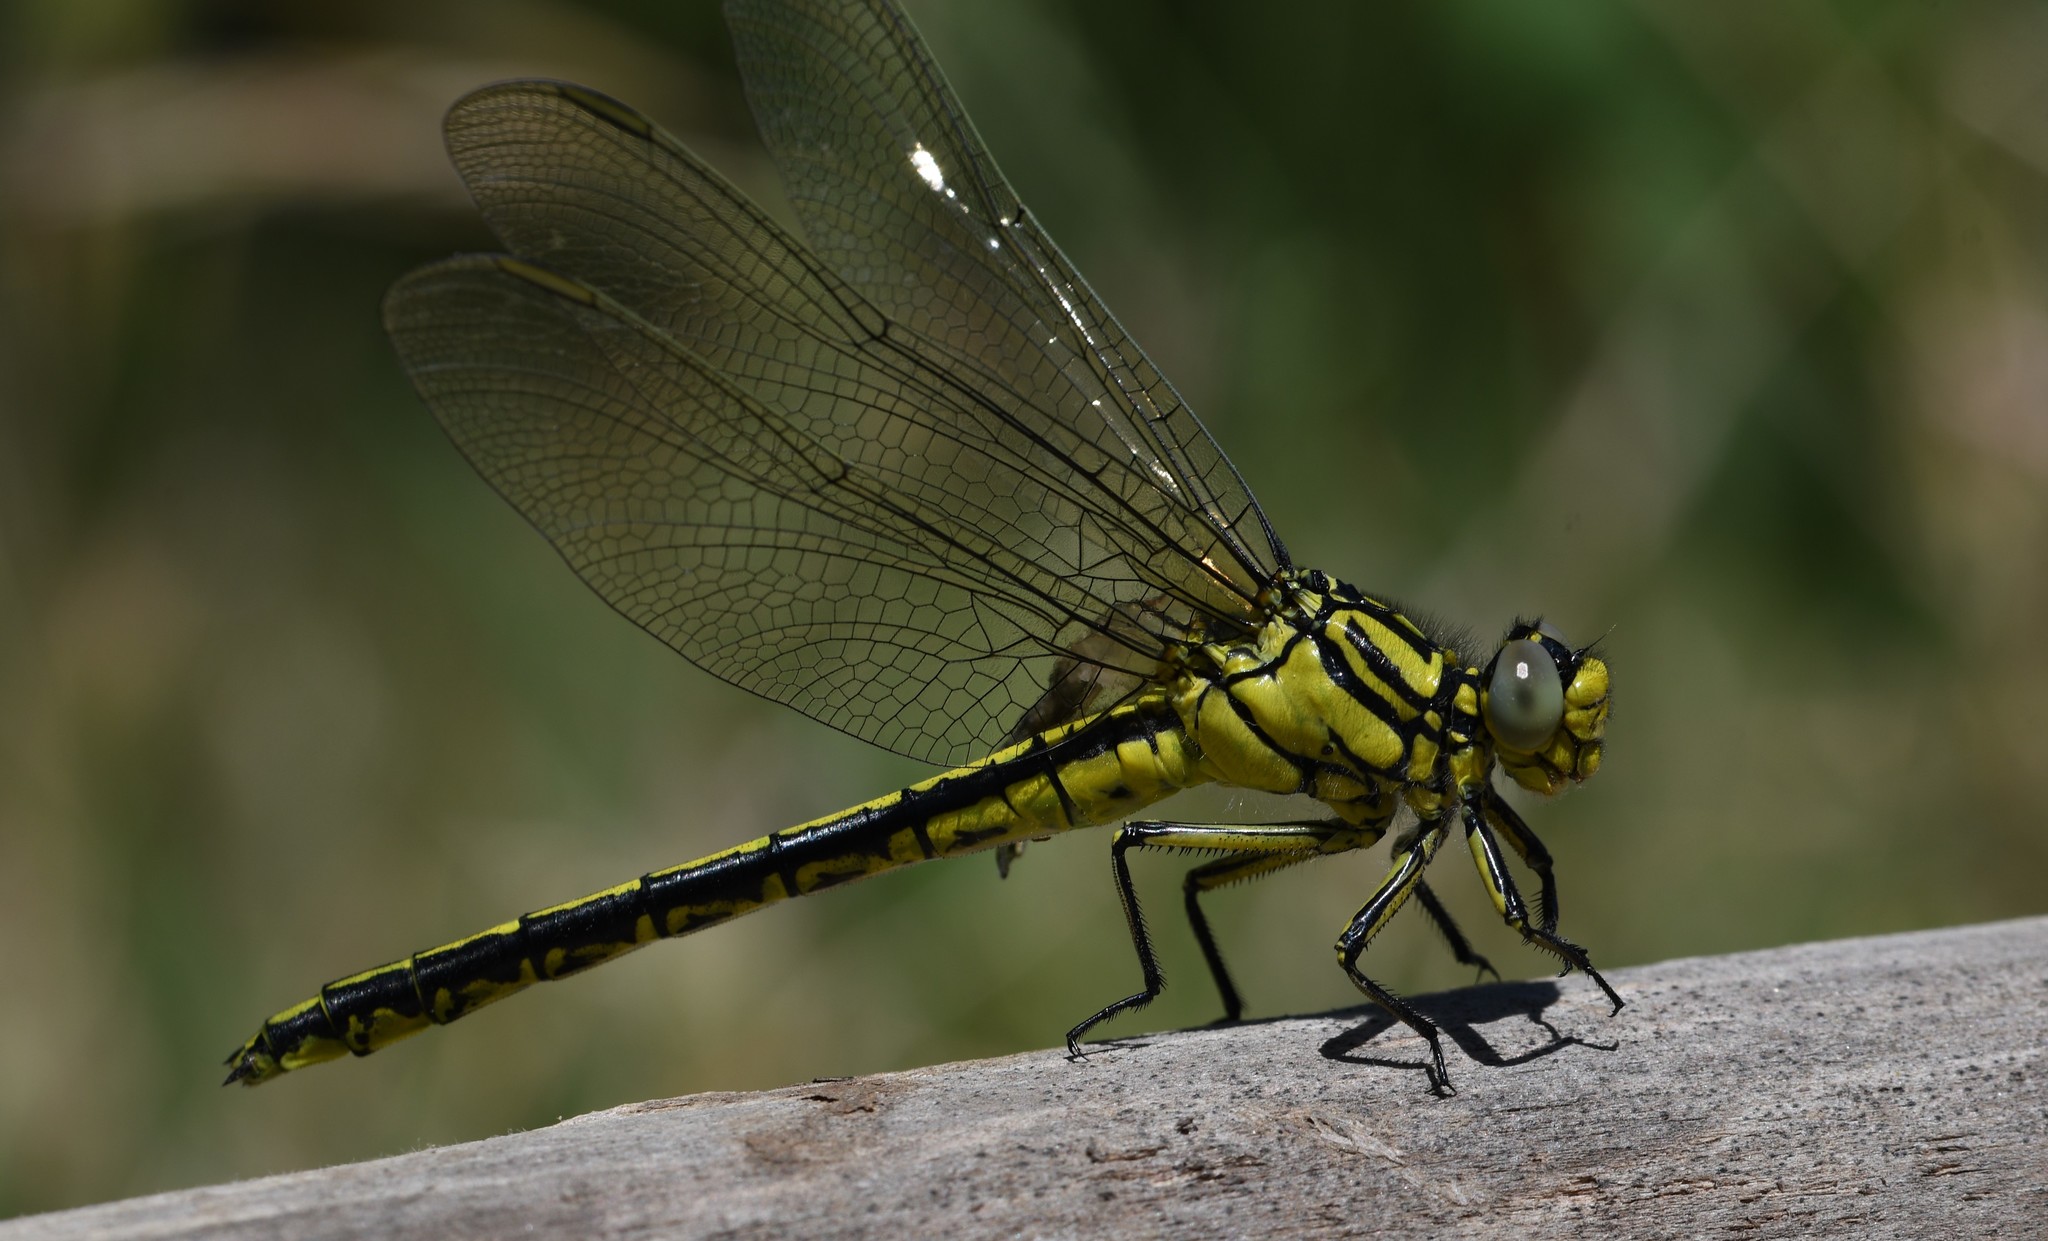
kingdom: Animalia
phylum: Arthropoda
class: Insecta
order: Odonata
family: Gomphidae
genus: Gomphus
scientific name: Gomphus simillimus
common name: Yellow clubtail
